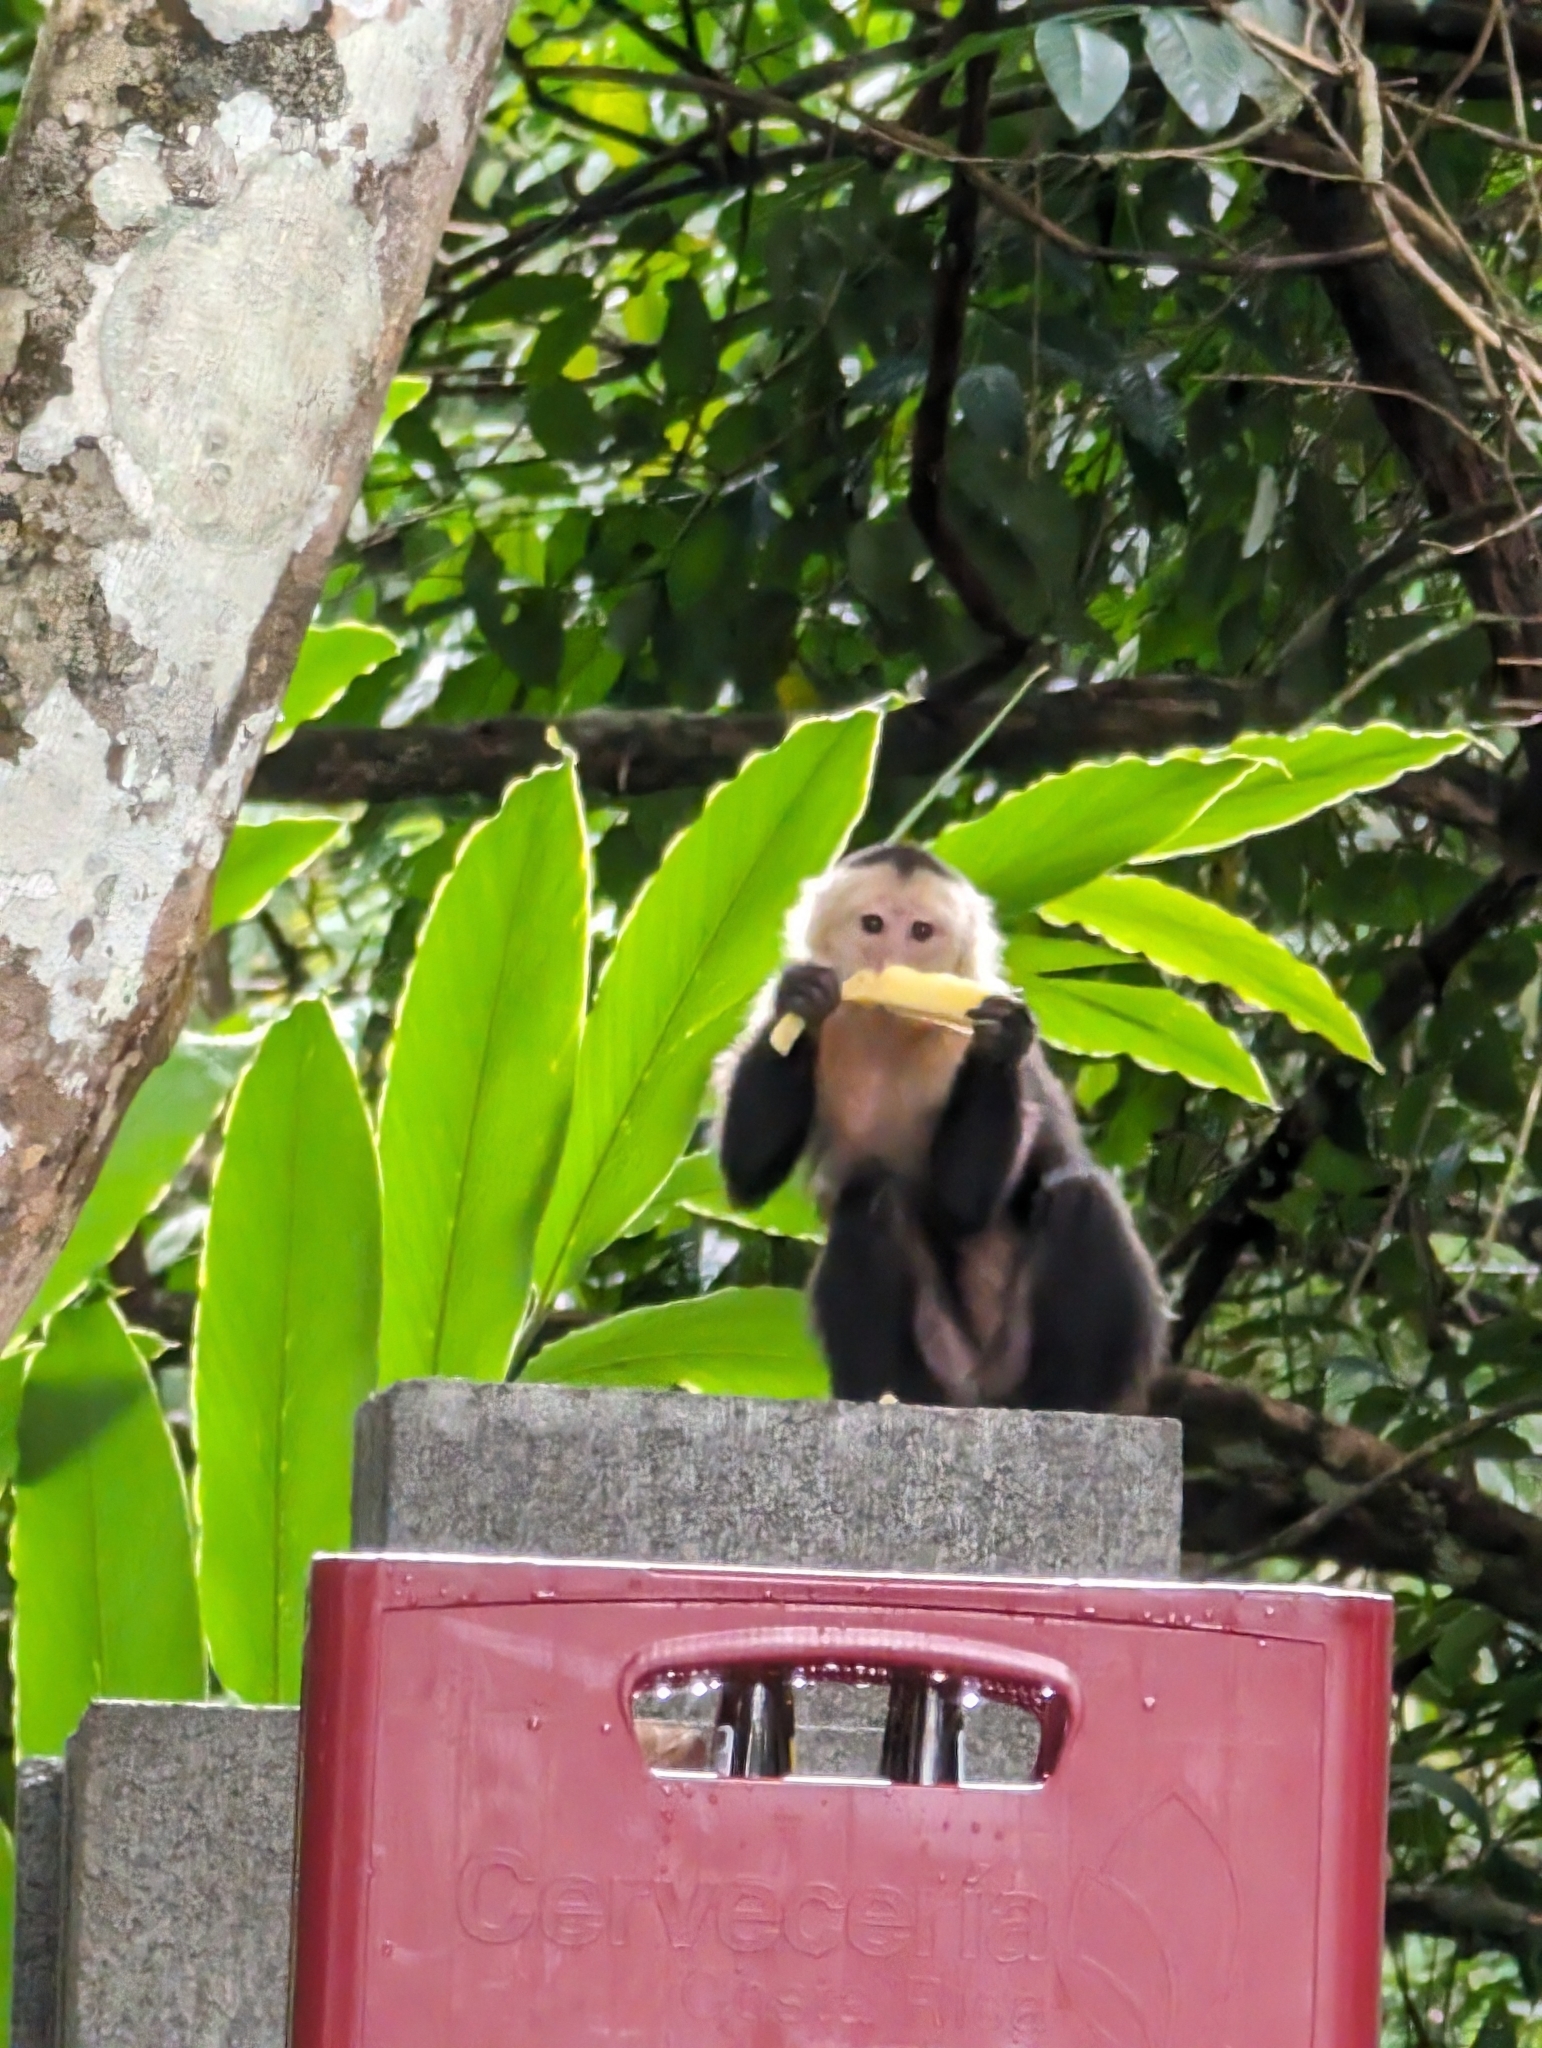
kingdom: Animalia
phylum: Chordata
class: Mammalia
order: Primates
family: Cebidae
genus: Cebus
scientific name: Cebus imitator
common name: Panamanian white-faced capuchin
